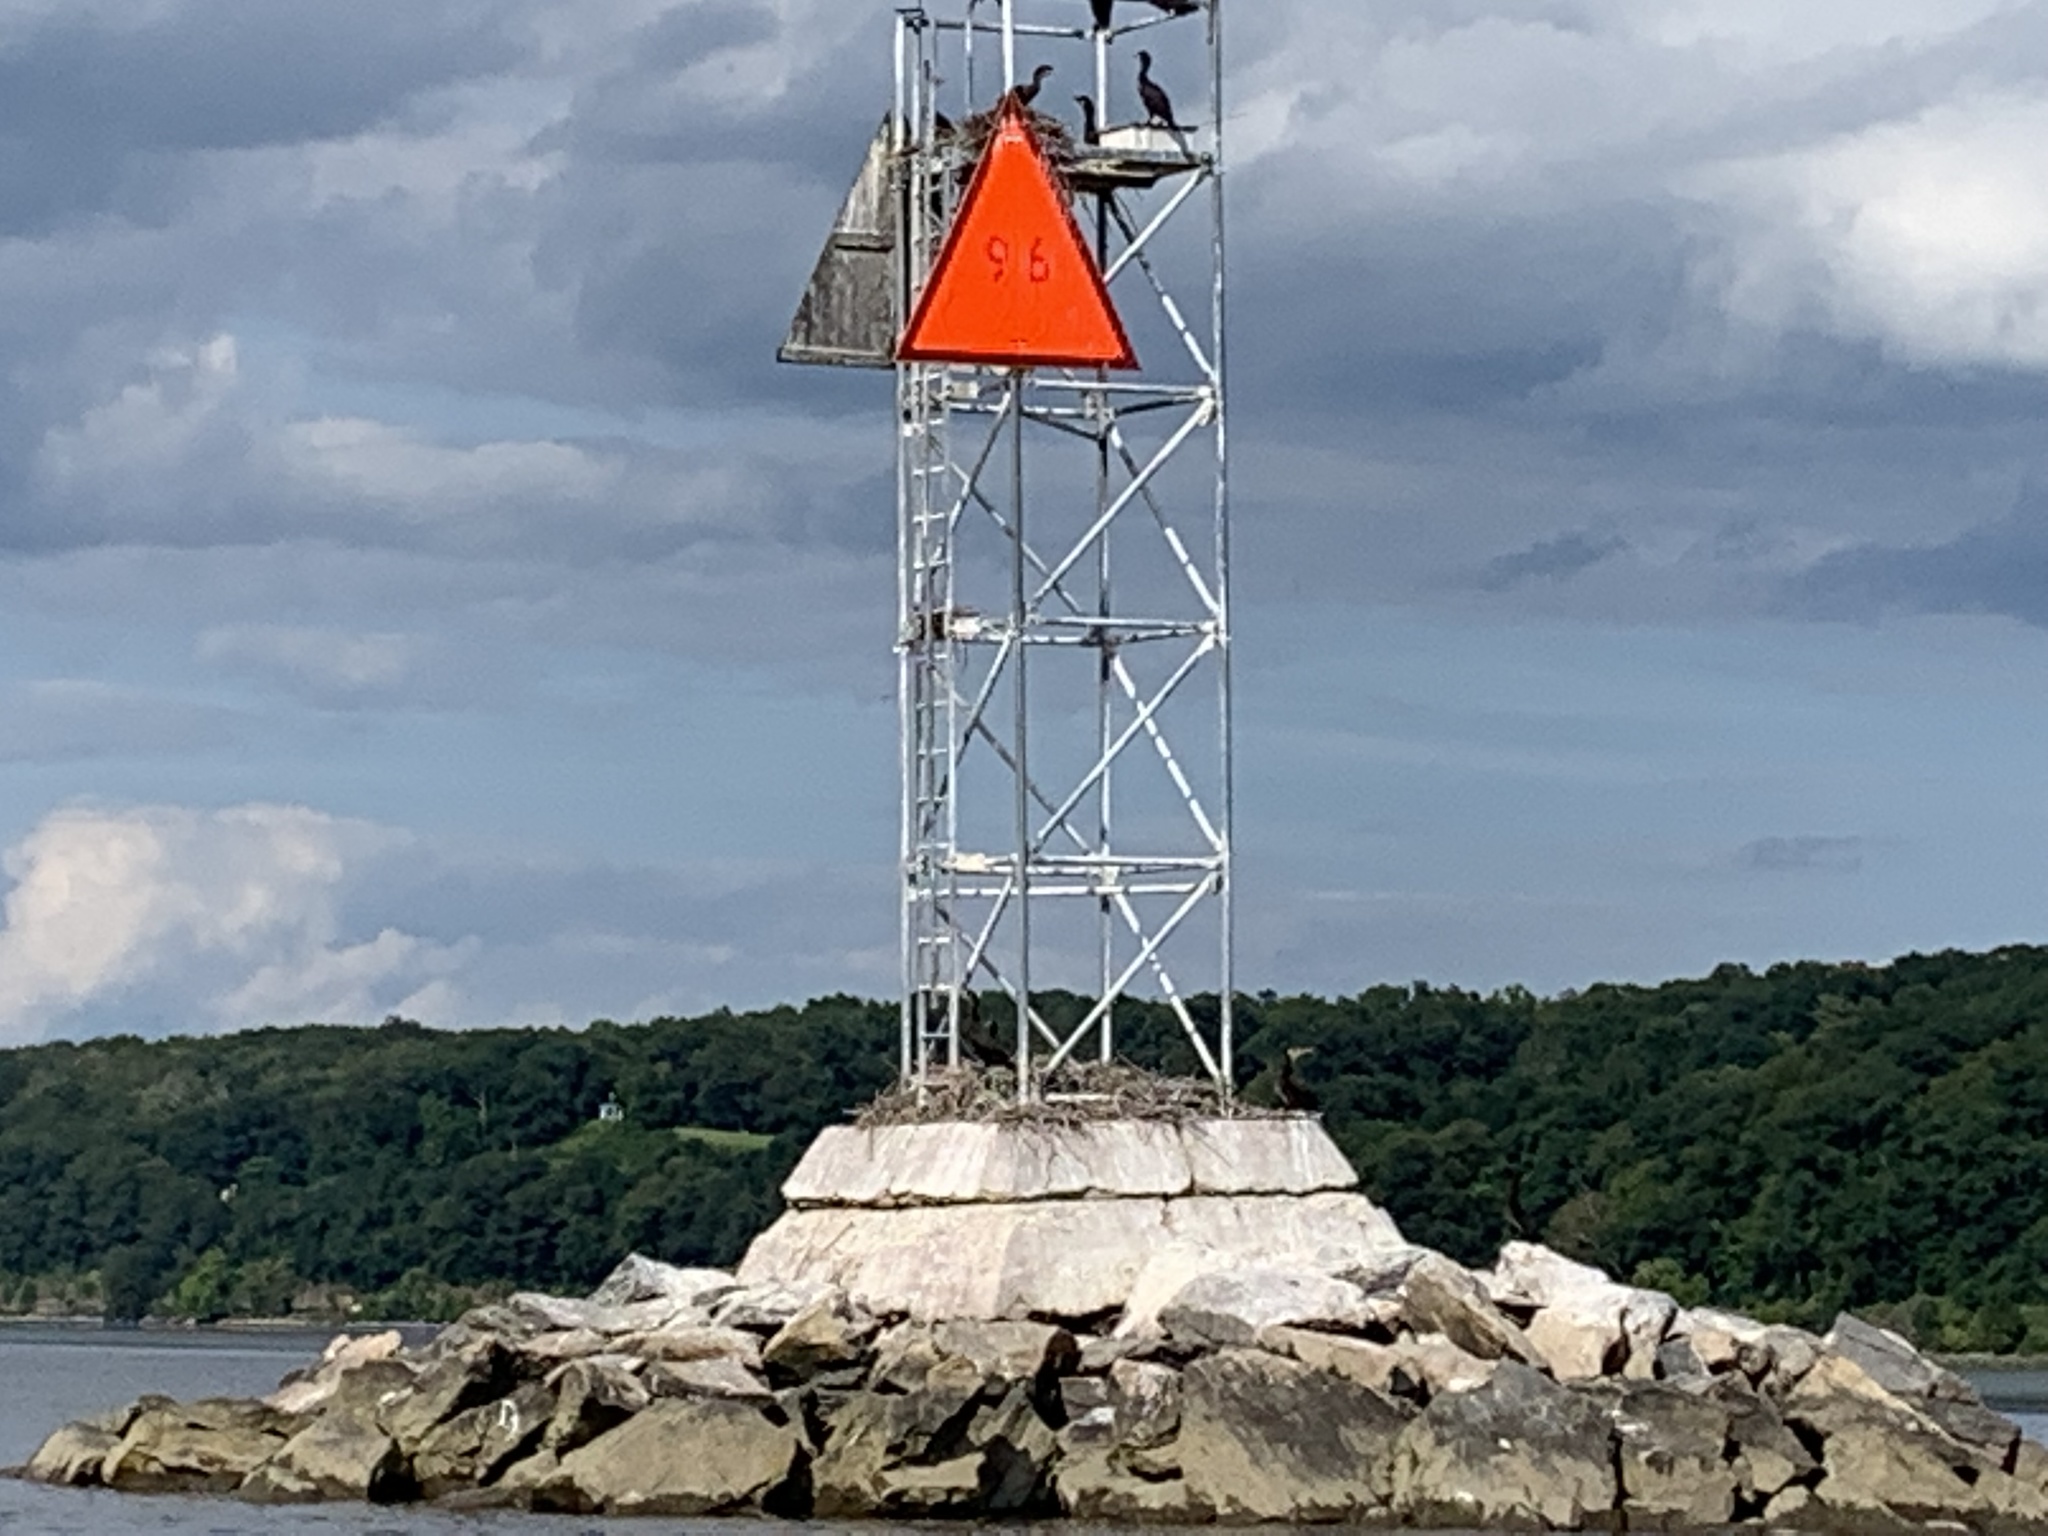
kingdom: Animalia
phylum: Chordata
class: Aves
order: Suliformes
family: Phalacrocoracidae
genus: Phalacrocorax
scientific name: Phalacrocorax auritus
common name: Double-crested cormorant
